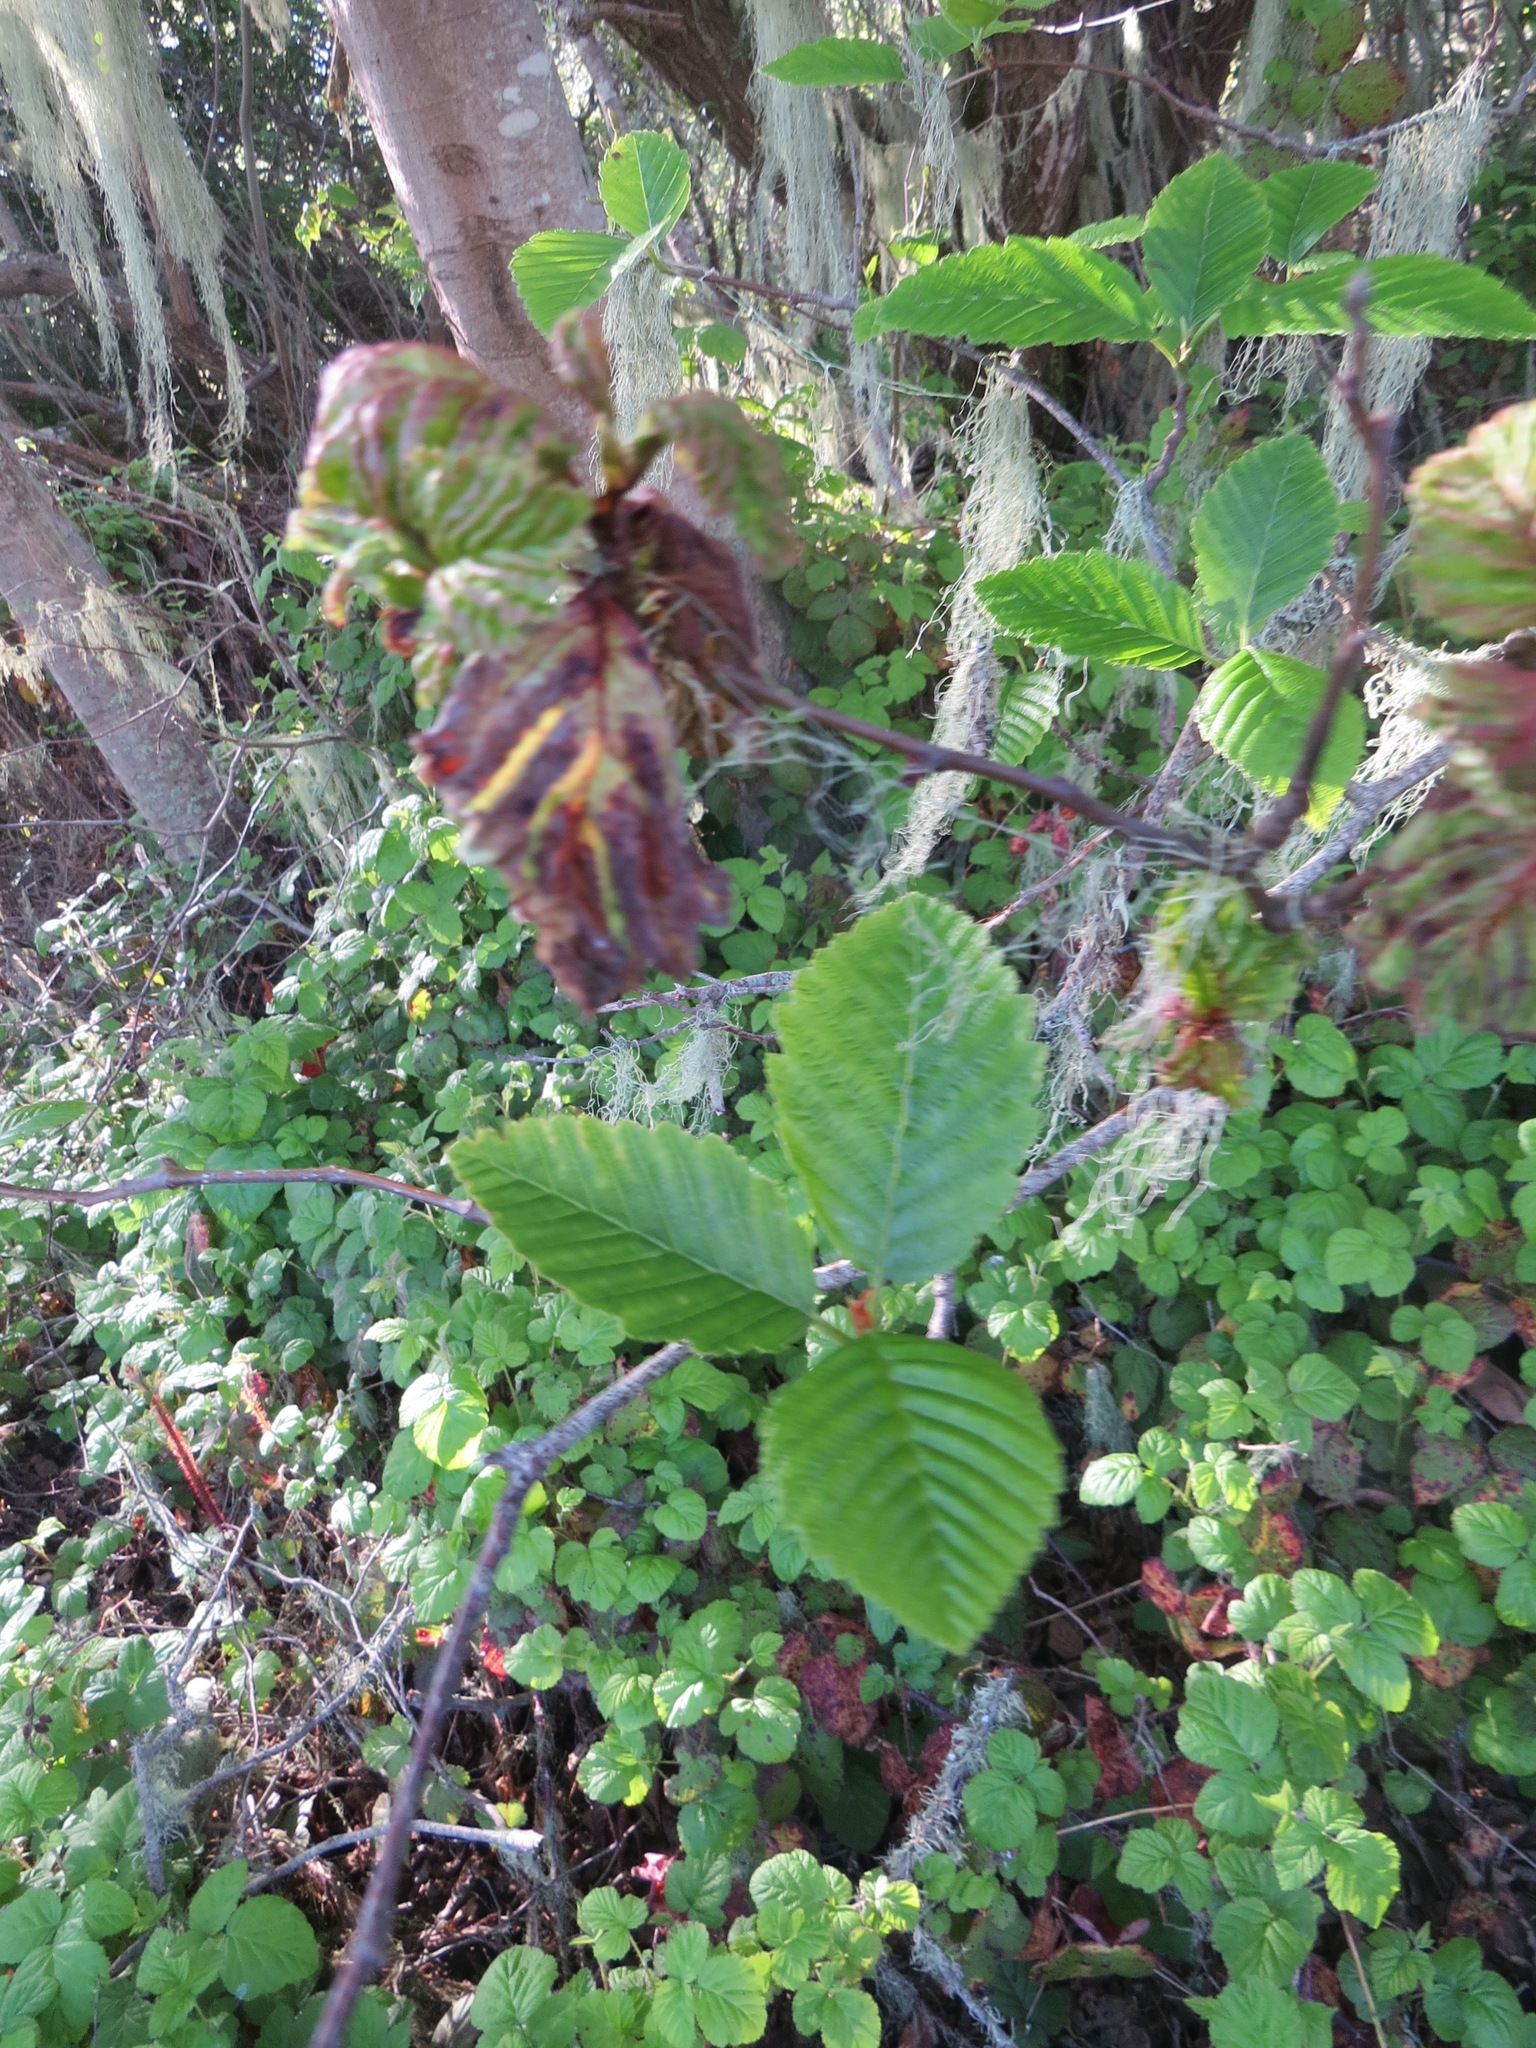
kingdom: Fungi
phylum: Ascomycota
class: Taphrinomycetes
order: Taphrinales
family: Taphrinaceae
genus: Taphrina
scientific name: Taphrina japonica
